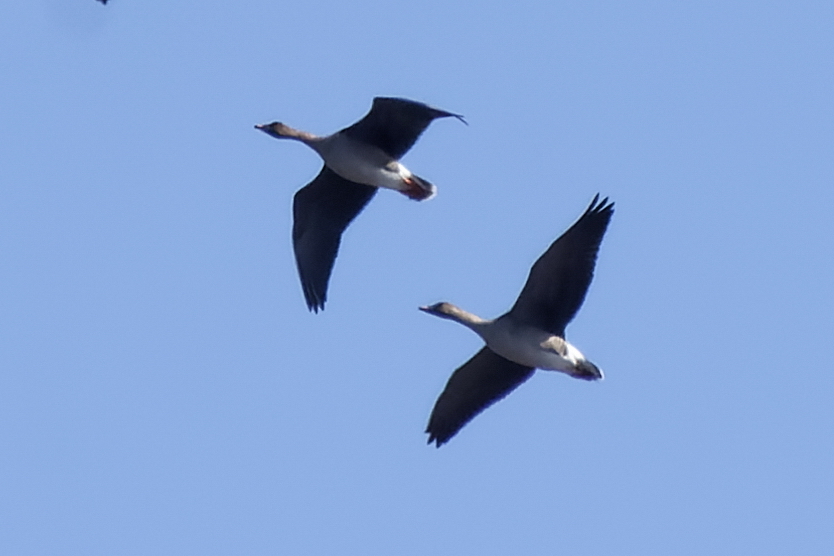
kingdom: Animalia
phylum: Chordata
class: Aves
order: Anseriformes
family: Anatidae
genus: Anser
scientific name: Anser fabalis
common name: Bean goose
